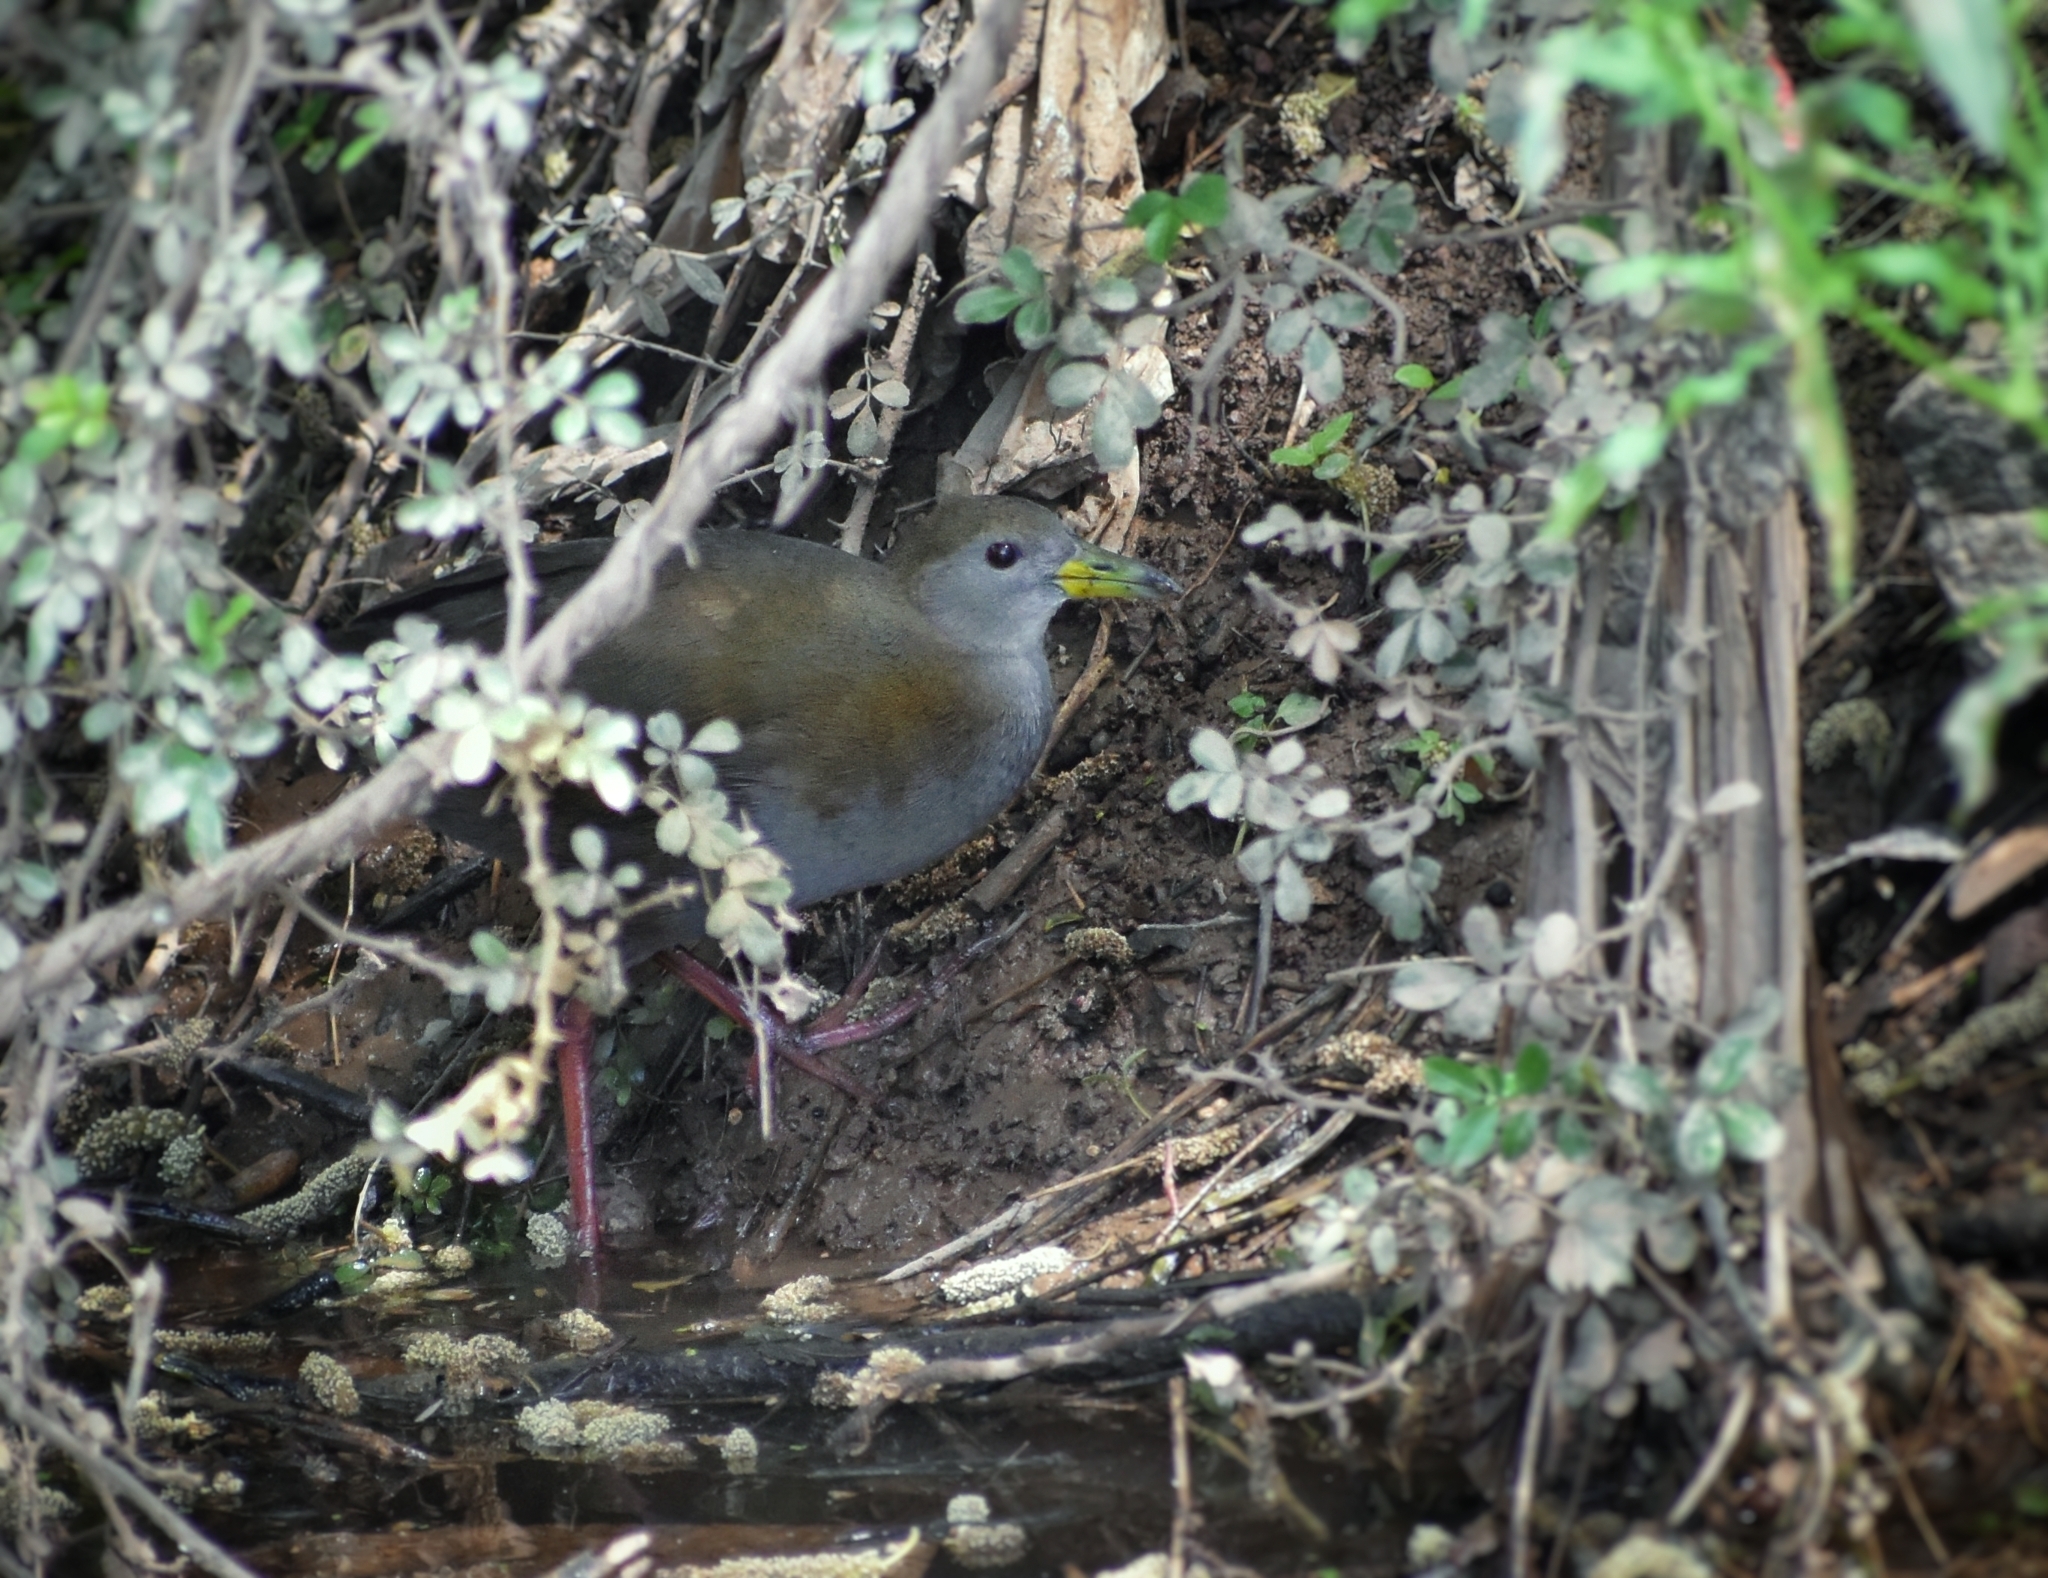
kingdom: Animalia
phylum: Chordata
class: Aves
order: Gruiformes
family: Rallidae
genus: Amaurornis
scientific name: Amaurornis akool
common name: Brown bush-hen
